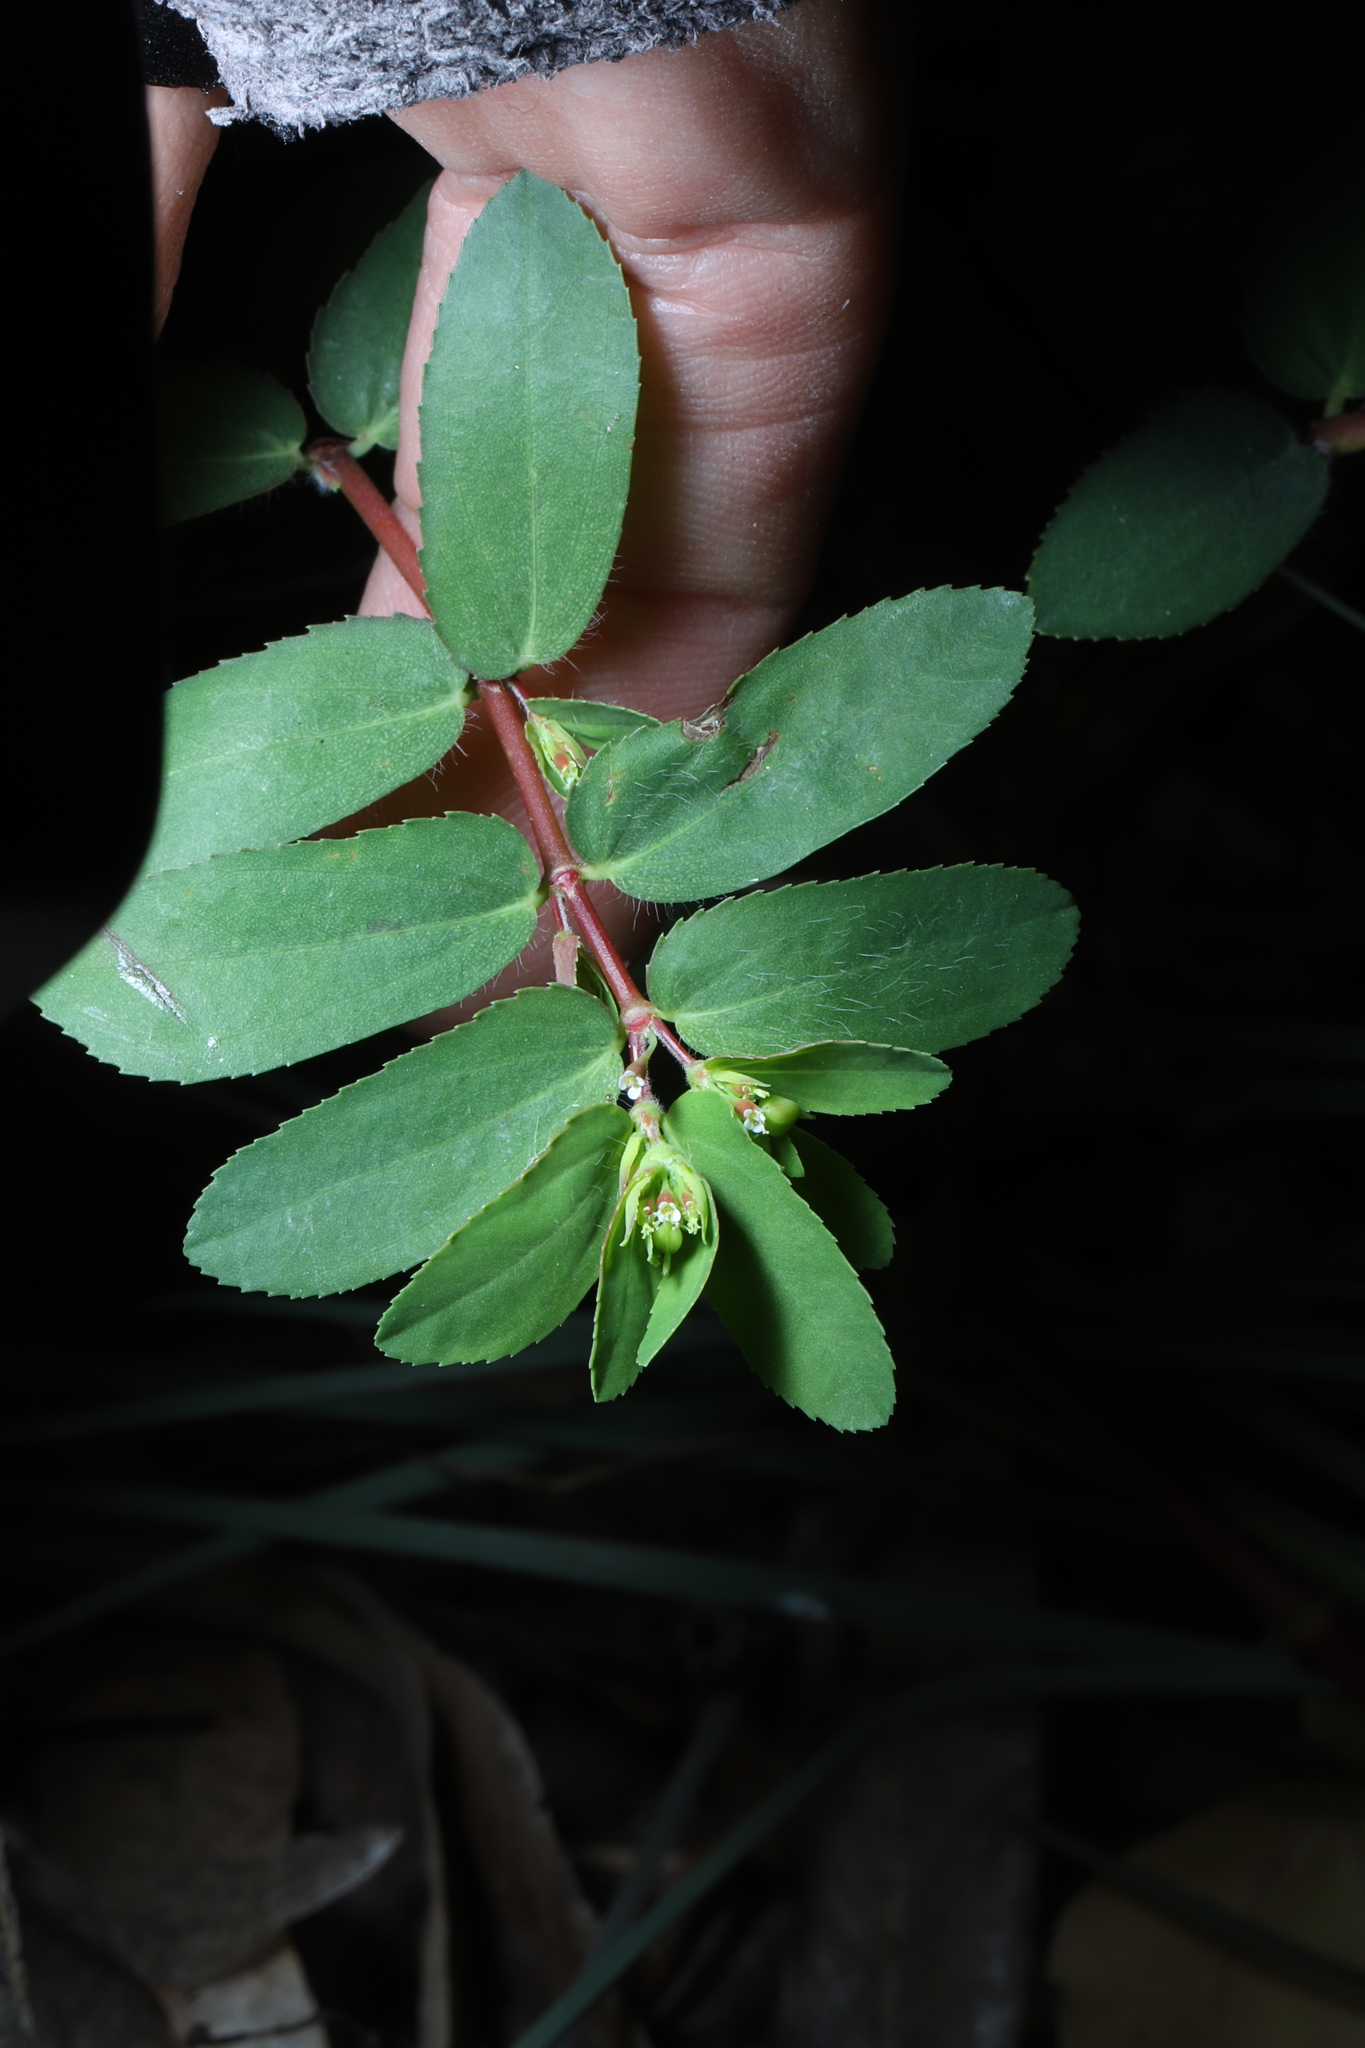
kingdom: Plantae
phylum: Tracheophyta
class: Magnoliopsida
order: Malpighiales
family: Euphorbiaceae
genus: Euphorbia
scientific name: Euphorbia nutans
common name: Eyebane
